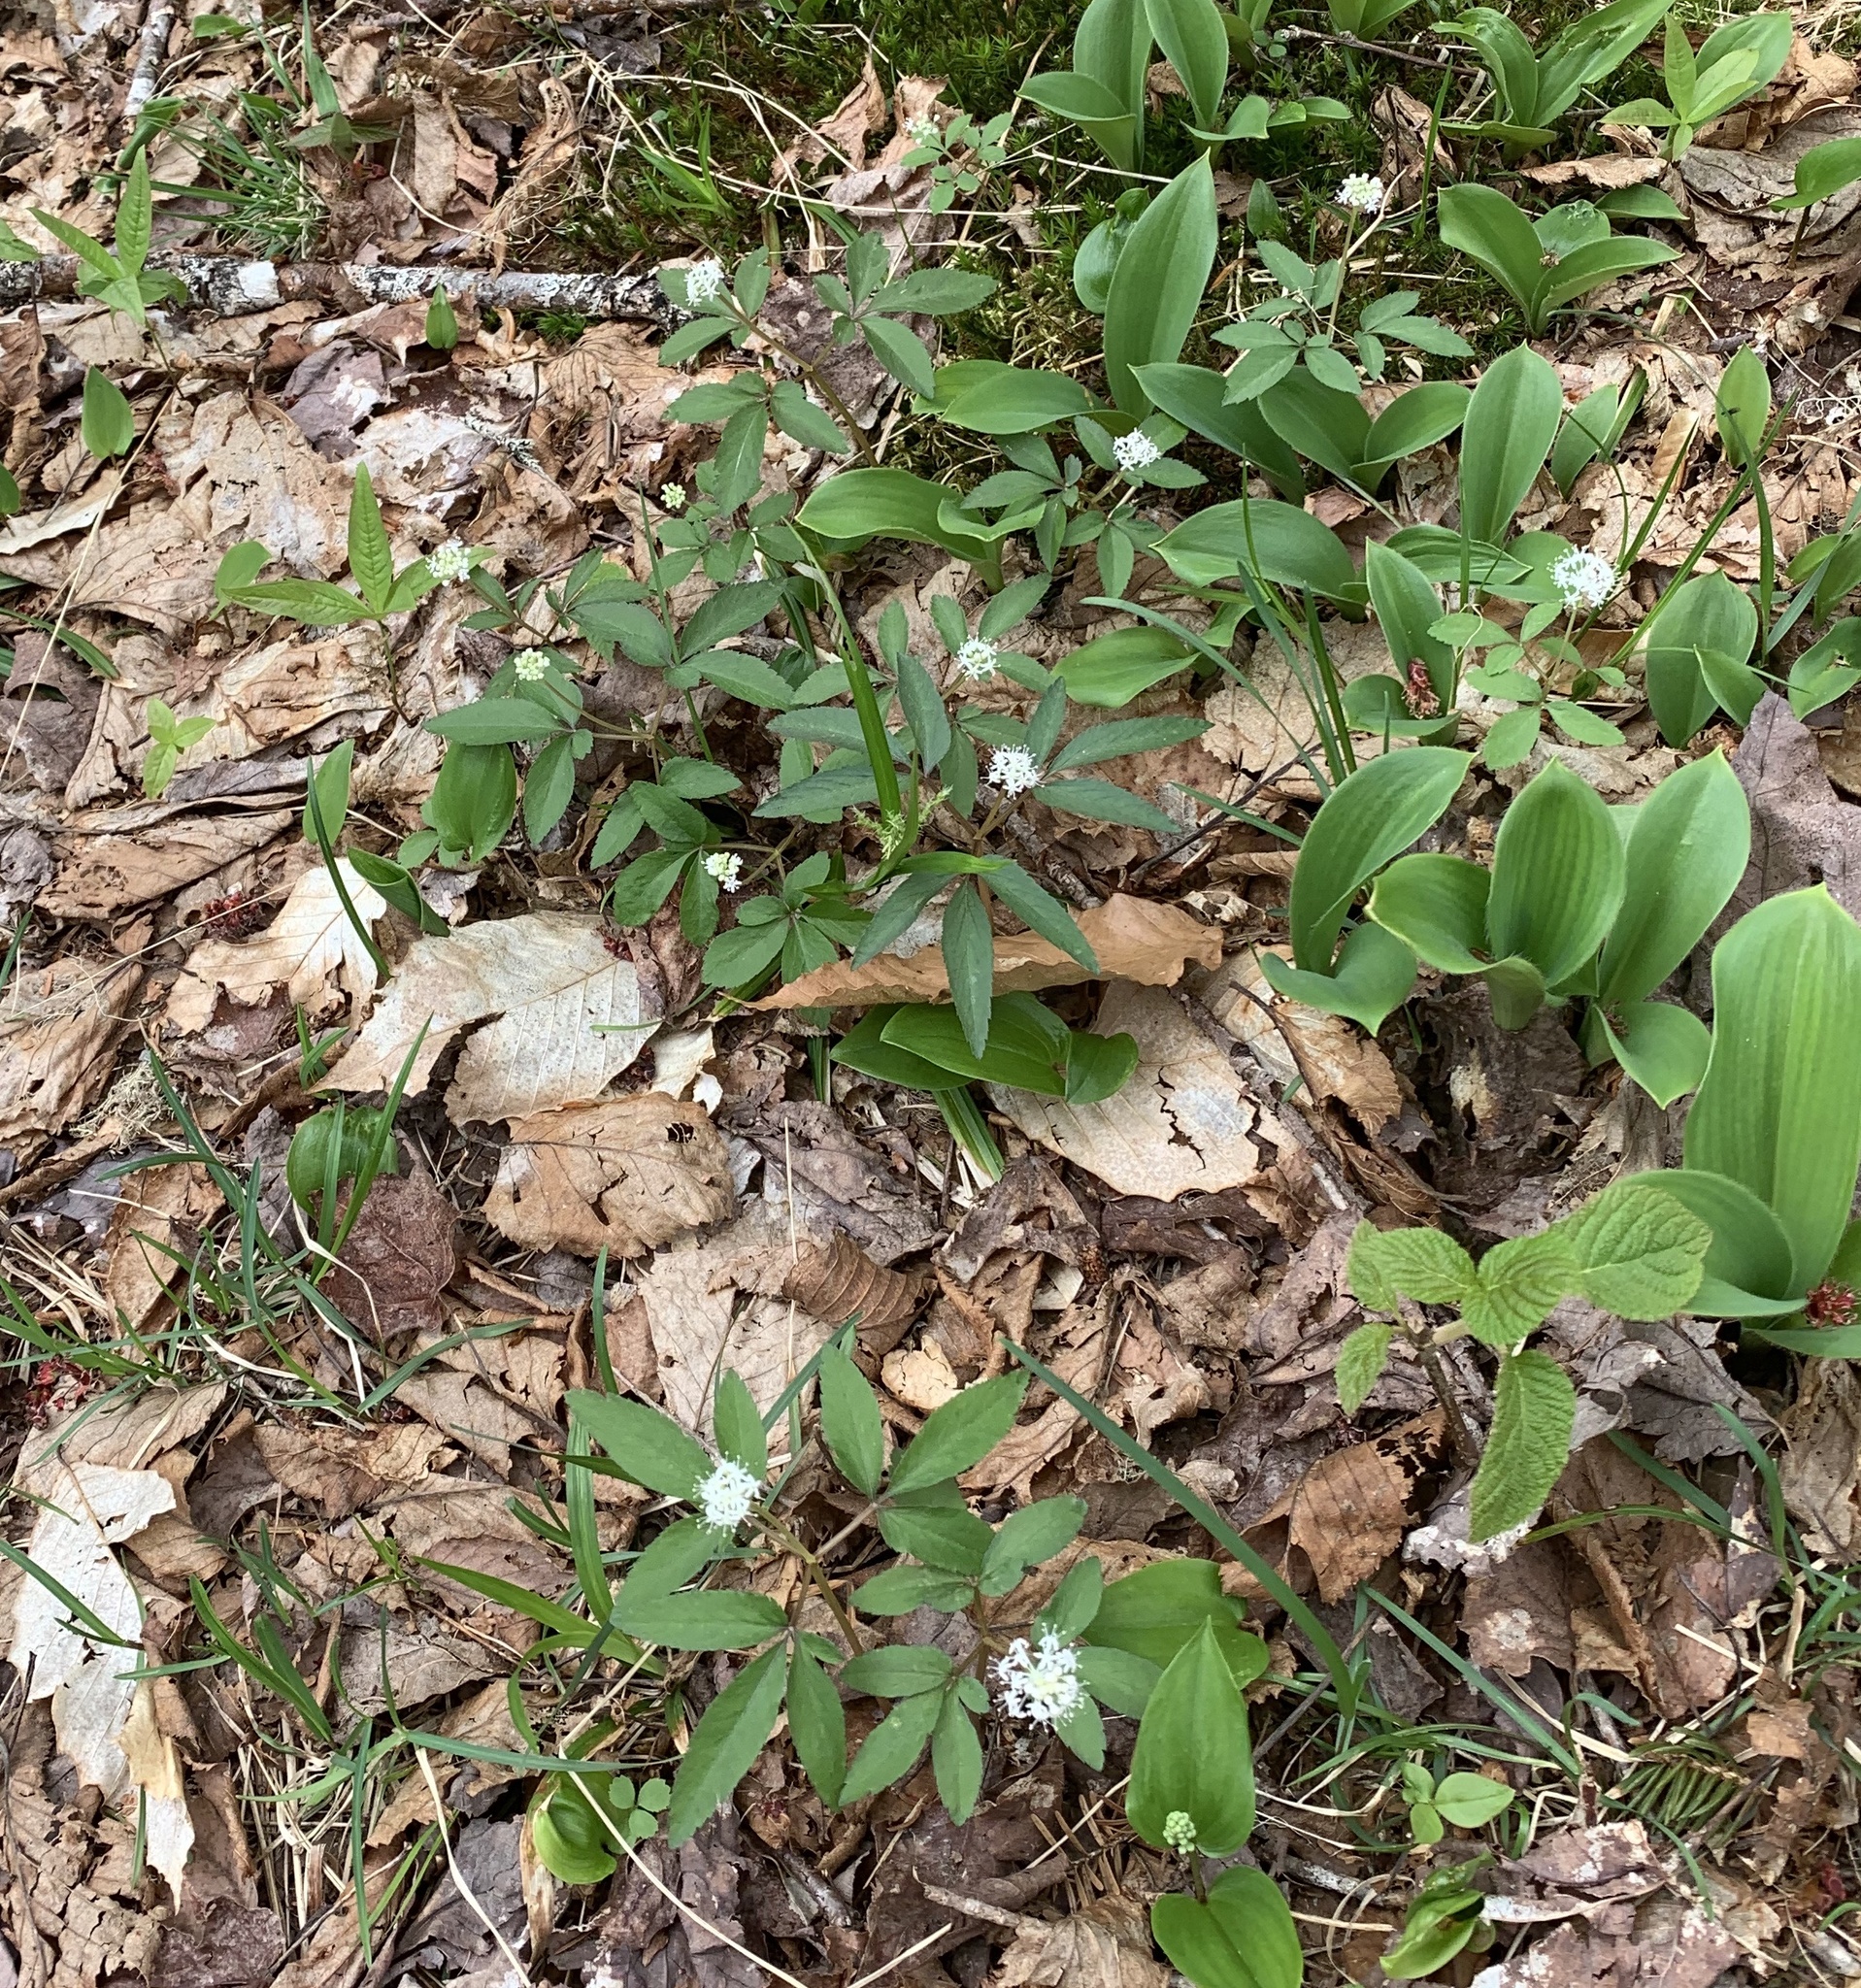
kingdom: Plantae
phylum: Tracheophyta
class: Magnoliopsida
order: Apiales
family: Araliaceae
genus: Panax
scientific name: Panax trifolius
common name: Dwarf ginseng
